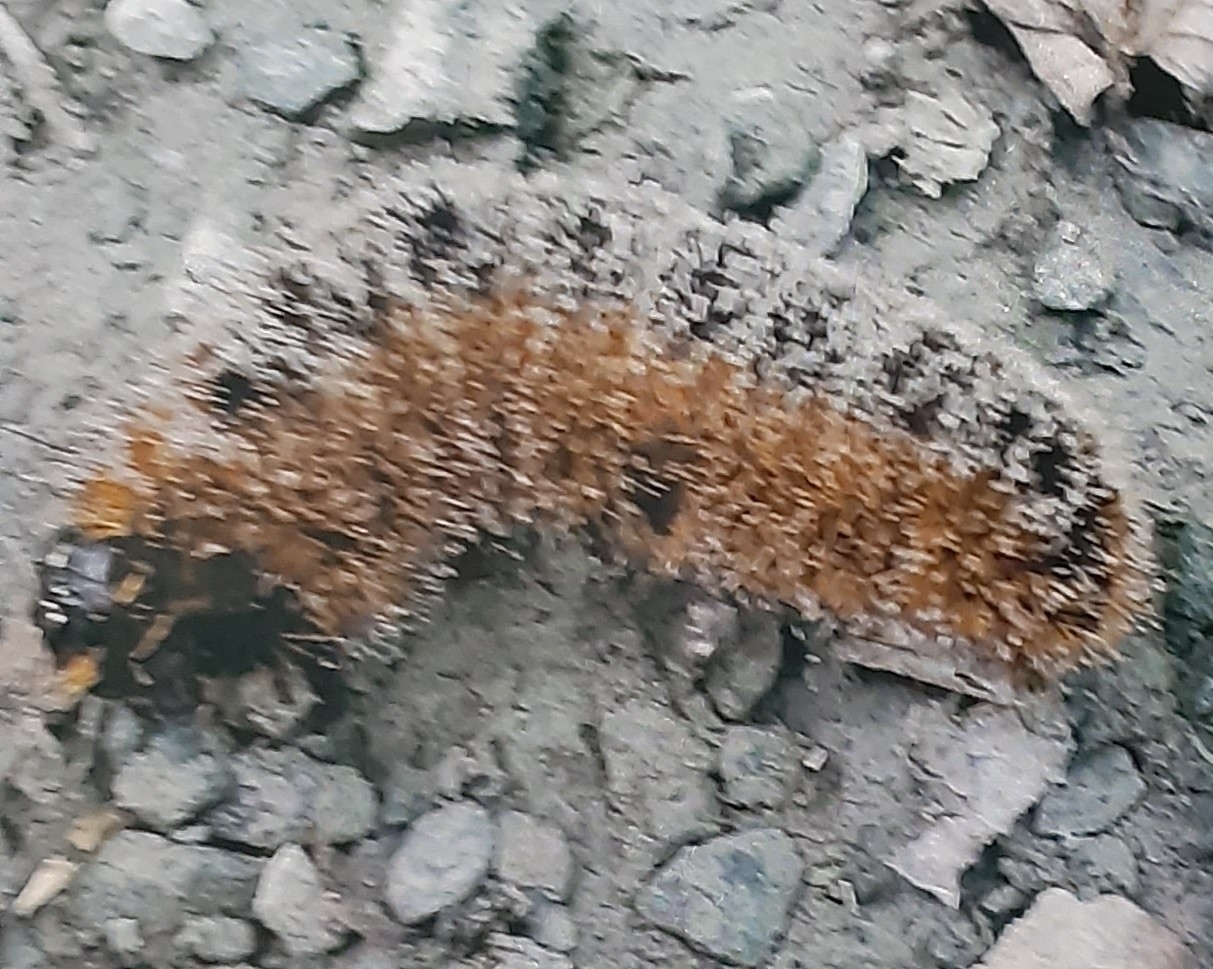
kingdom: Animalia
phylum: Arthropoda
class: Insecta
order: Lepidoptera
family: Noctuidae
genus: Acronicta
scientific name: Acronicta hastulifera
